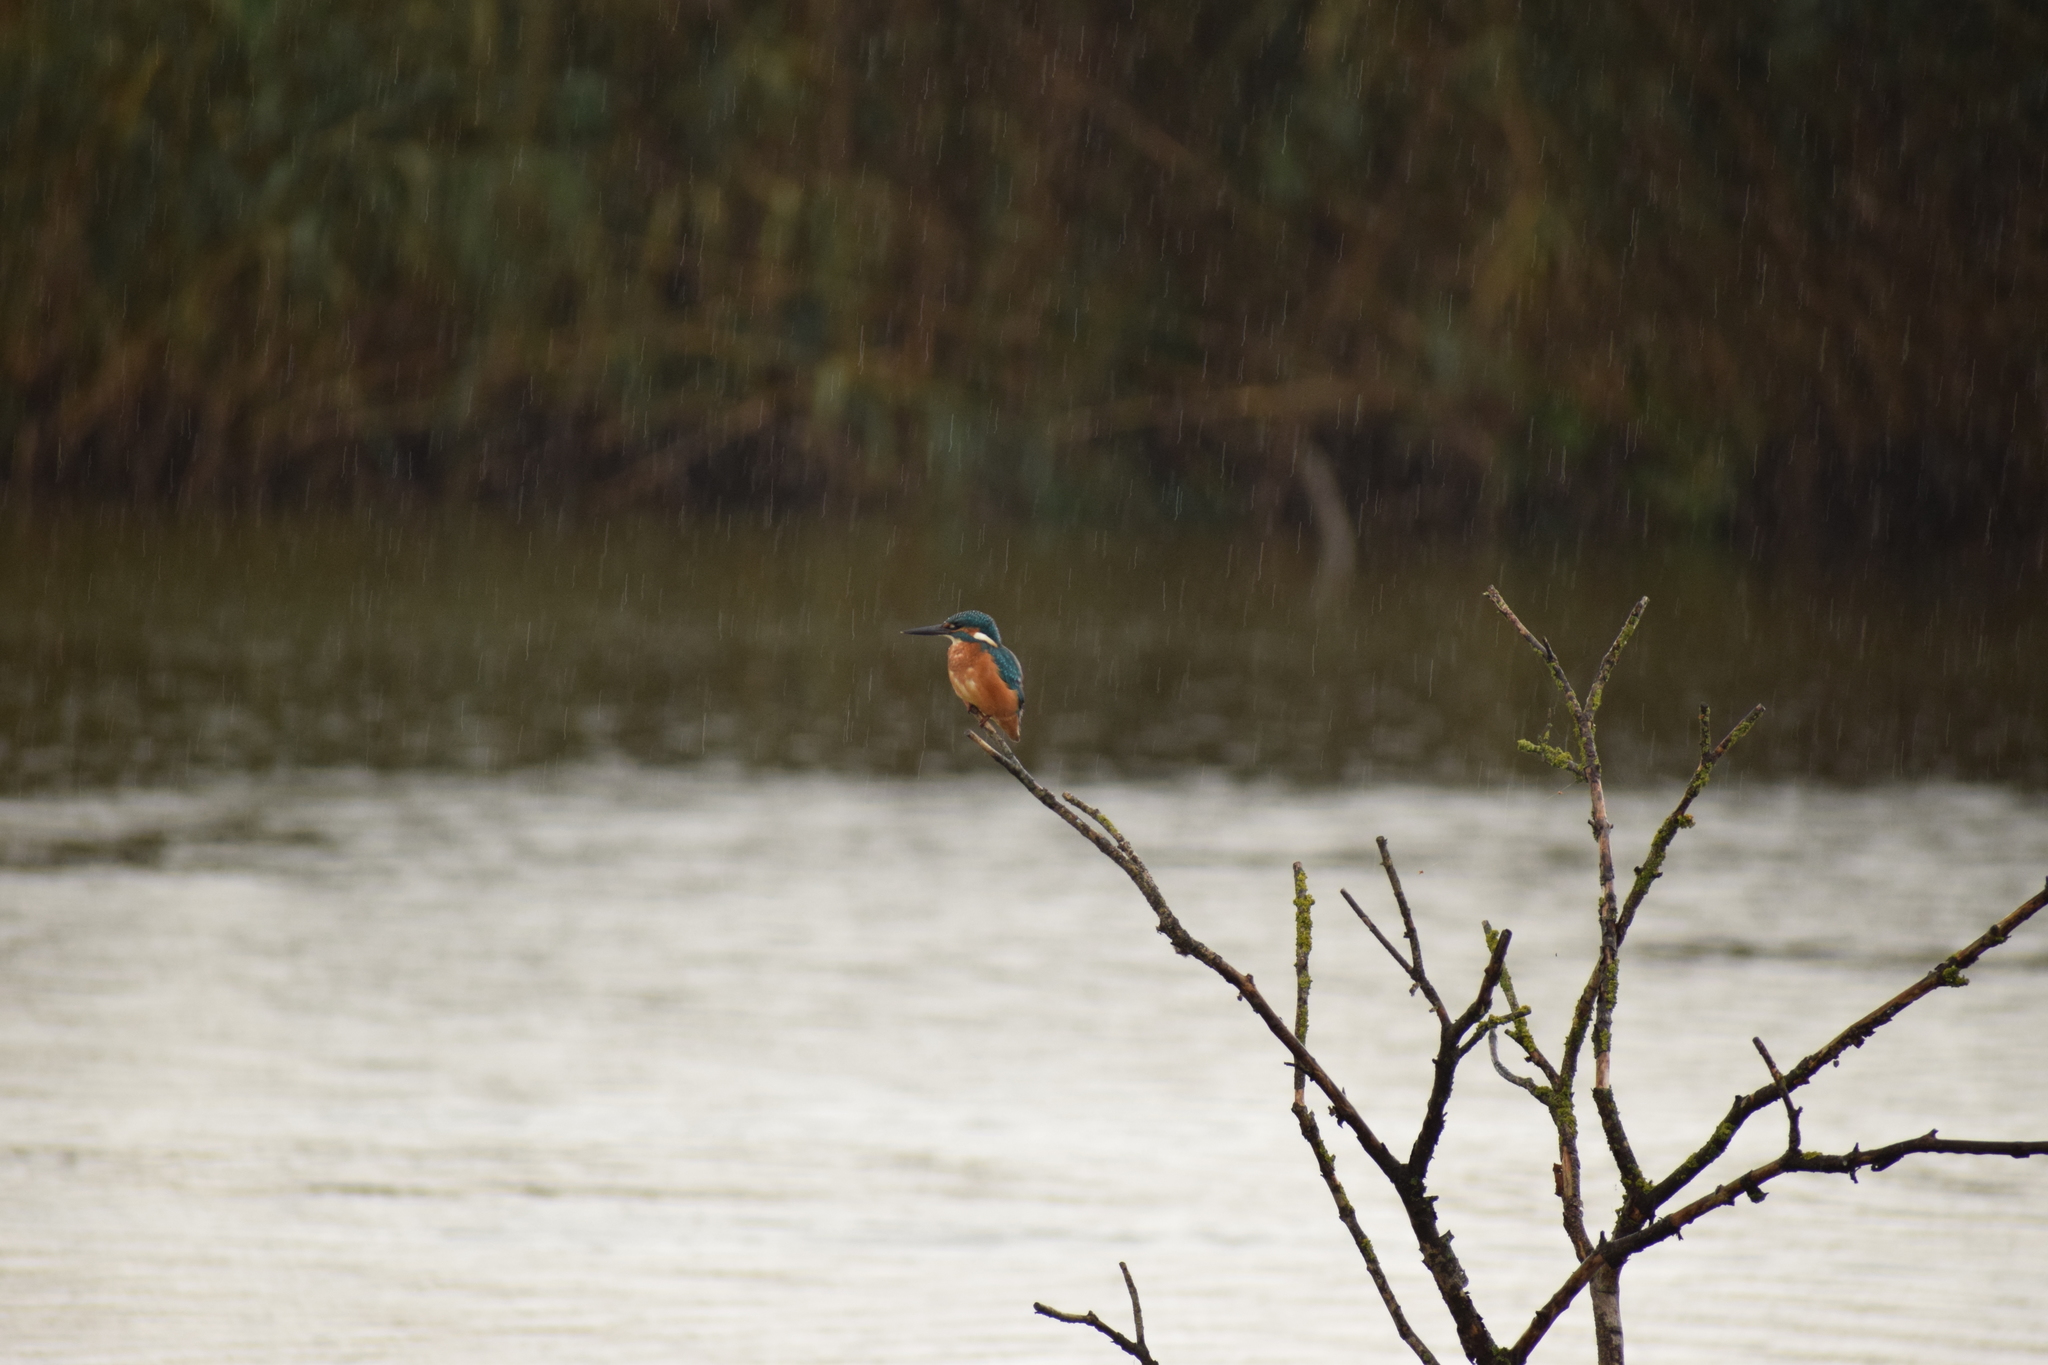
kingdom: Animalia
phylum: Chordata
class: Aves
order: Passeriformes
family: Motacillidae
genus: Motacilla
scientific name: Motacilla alba
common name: White wagtail
